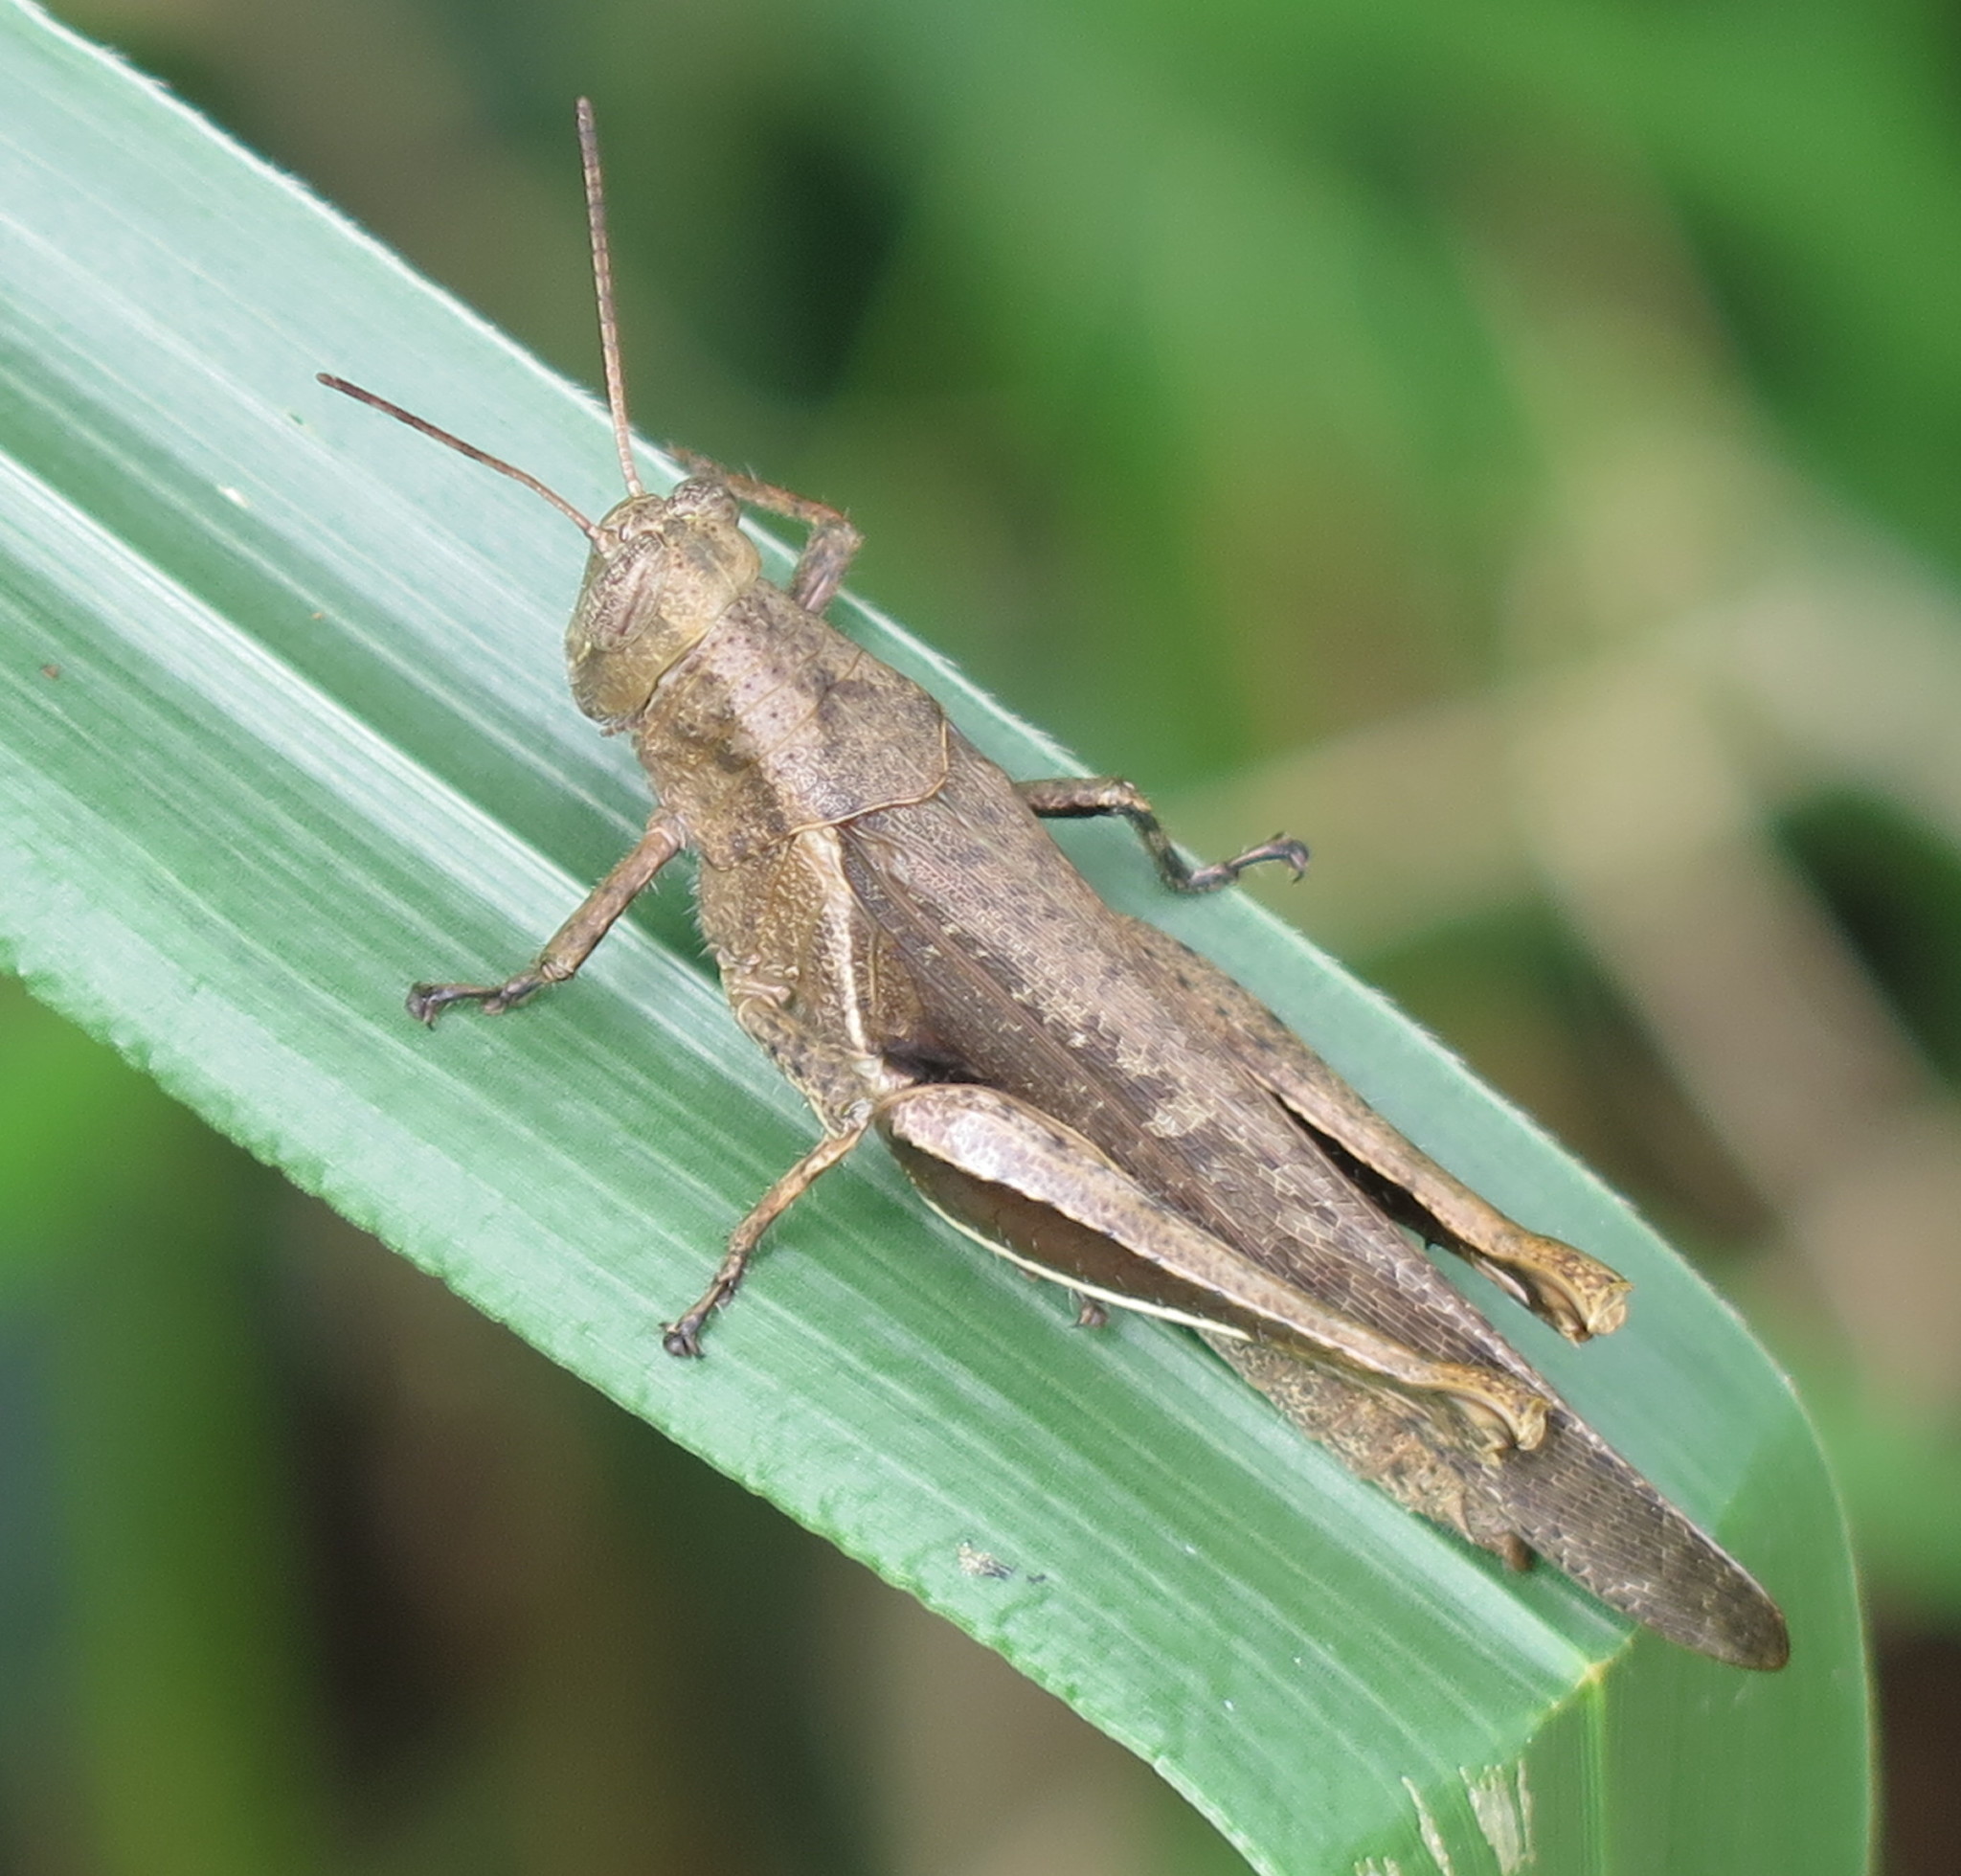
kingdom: Animalia
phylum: Arthropoda
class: Insecta
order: Orthoptera
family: Acrididae
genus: Abracris
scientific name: Abracris flavolineata
